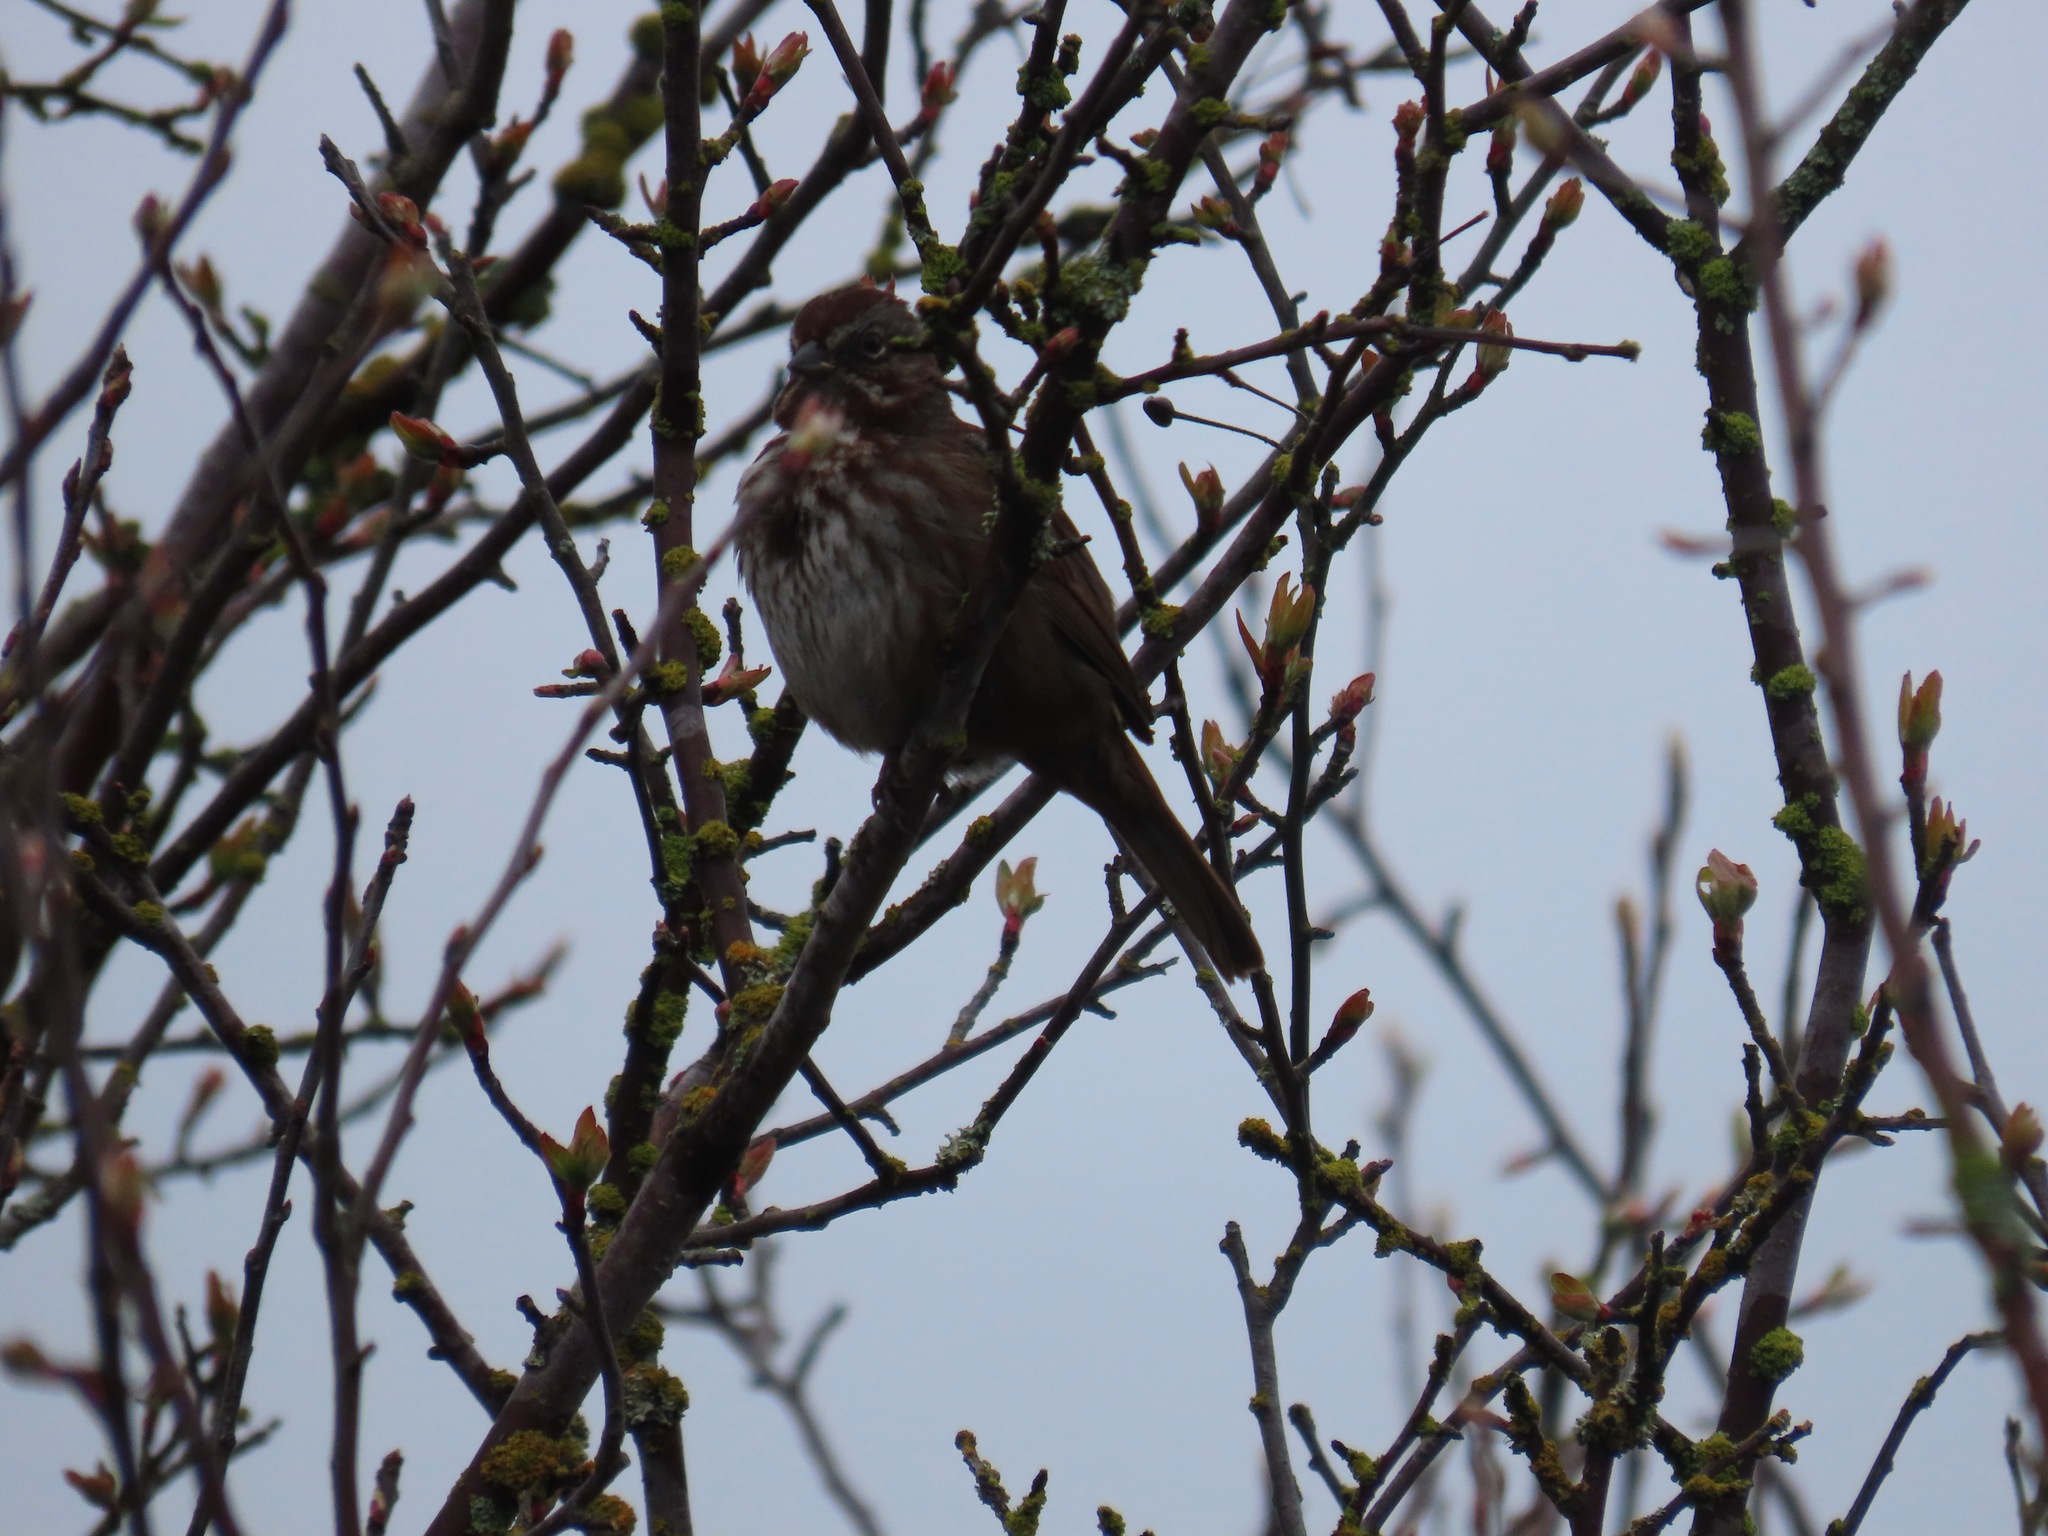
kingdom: Animalia
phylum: Chordata
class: Aves
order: Passeriformes
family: Passerellidae
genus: Melospiza
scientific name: Melospiza melodia
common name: Song sparrow
